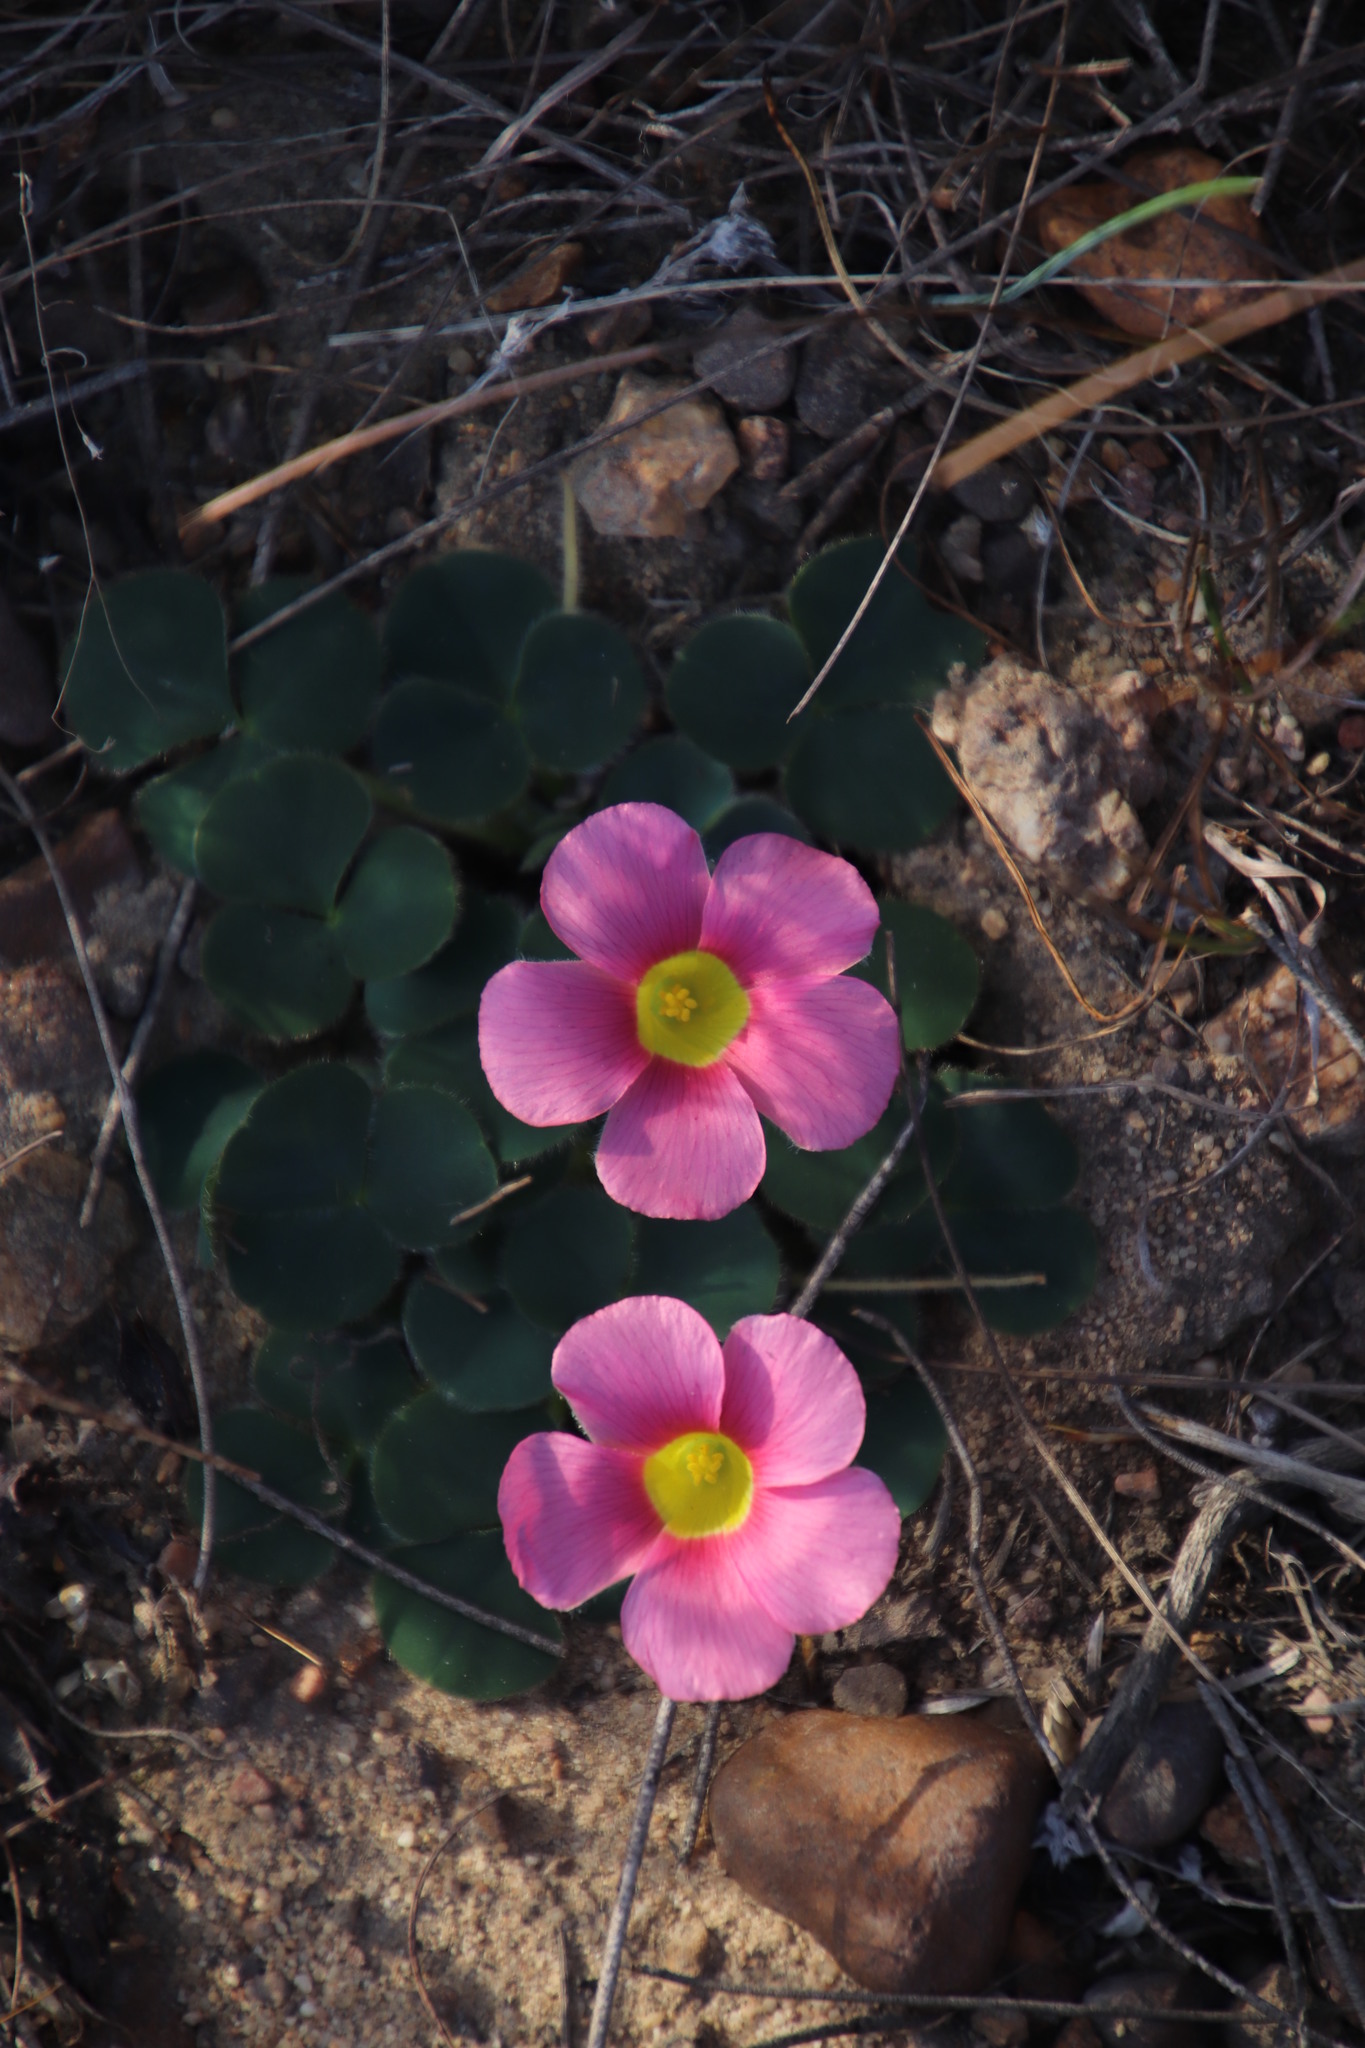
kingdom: Plantae
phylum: Tracheophyta
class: Magnoliopsida
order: Oxalidales
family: Oxalidaceae
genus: Oxalis
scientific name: Oxalis purpurea
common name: Purple woodsorrel
